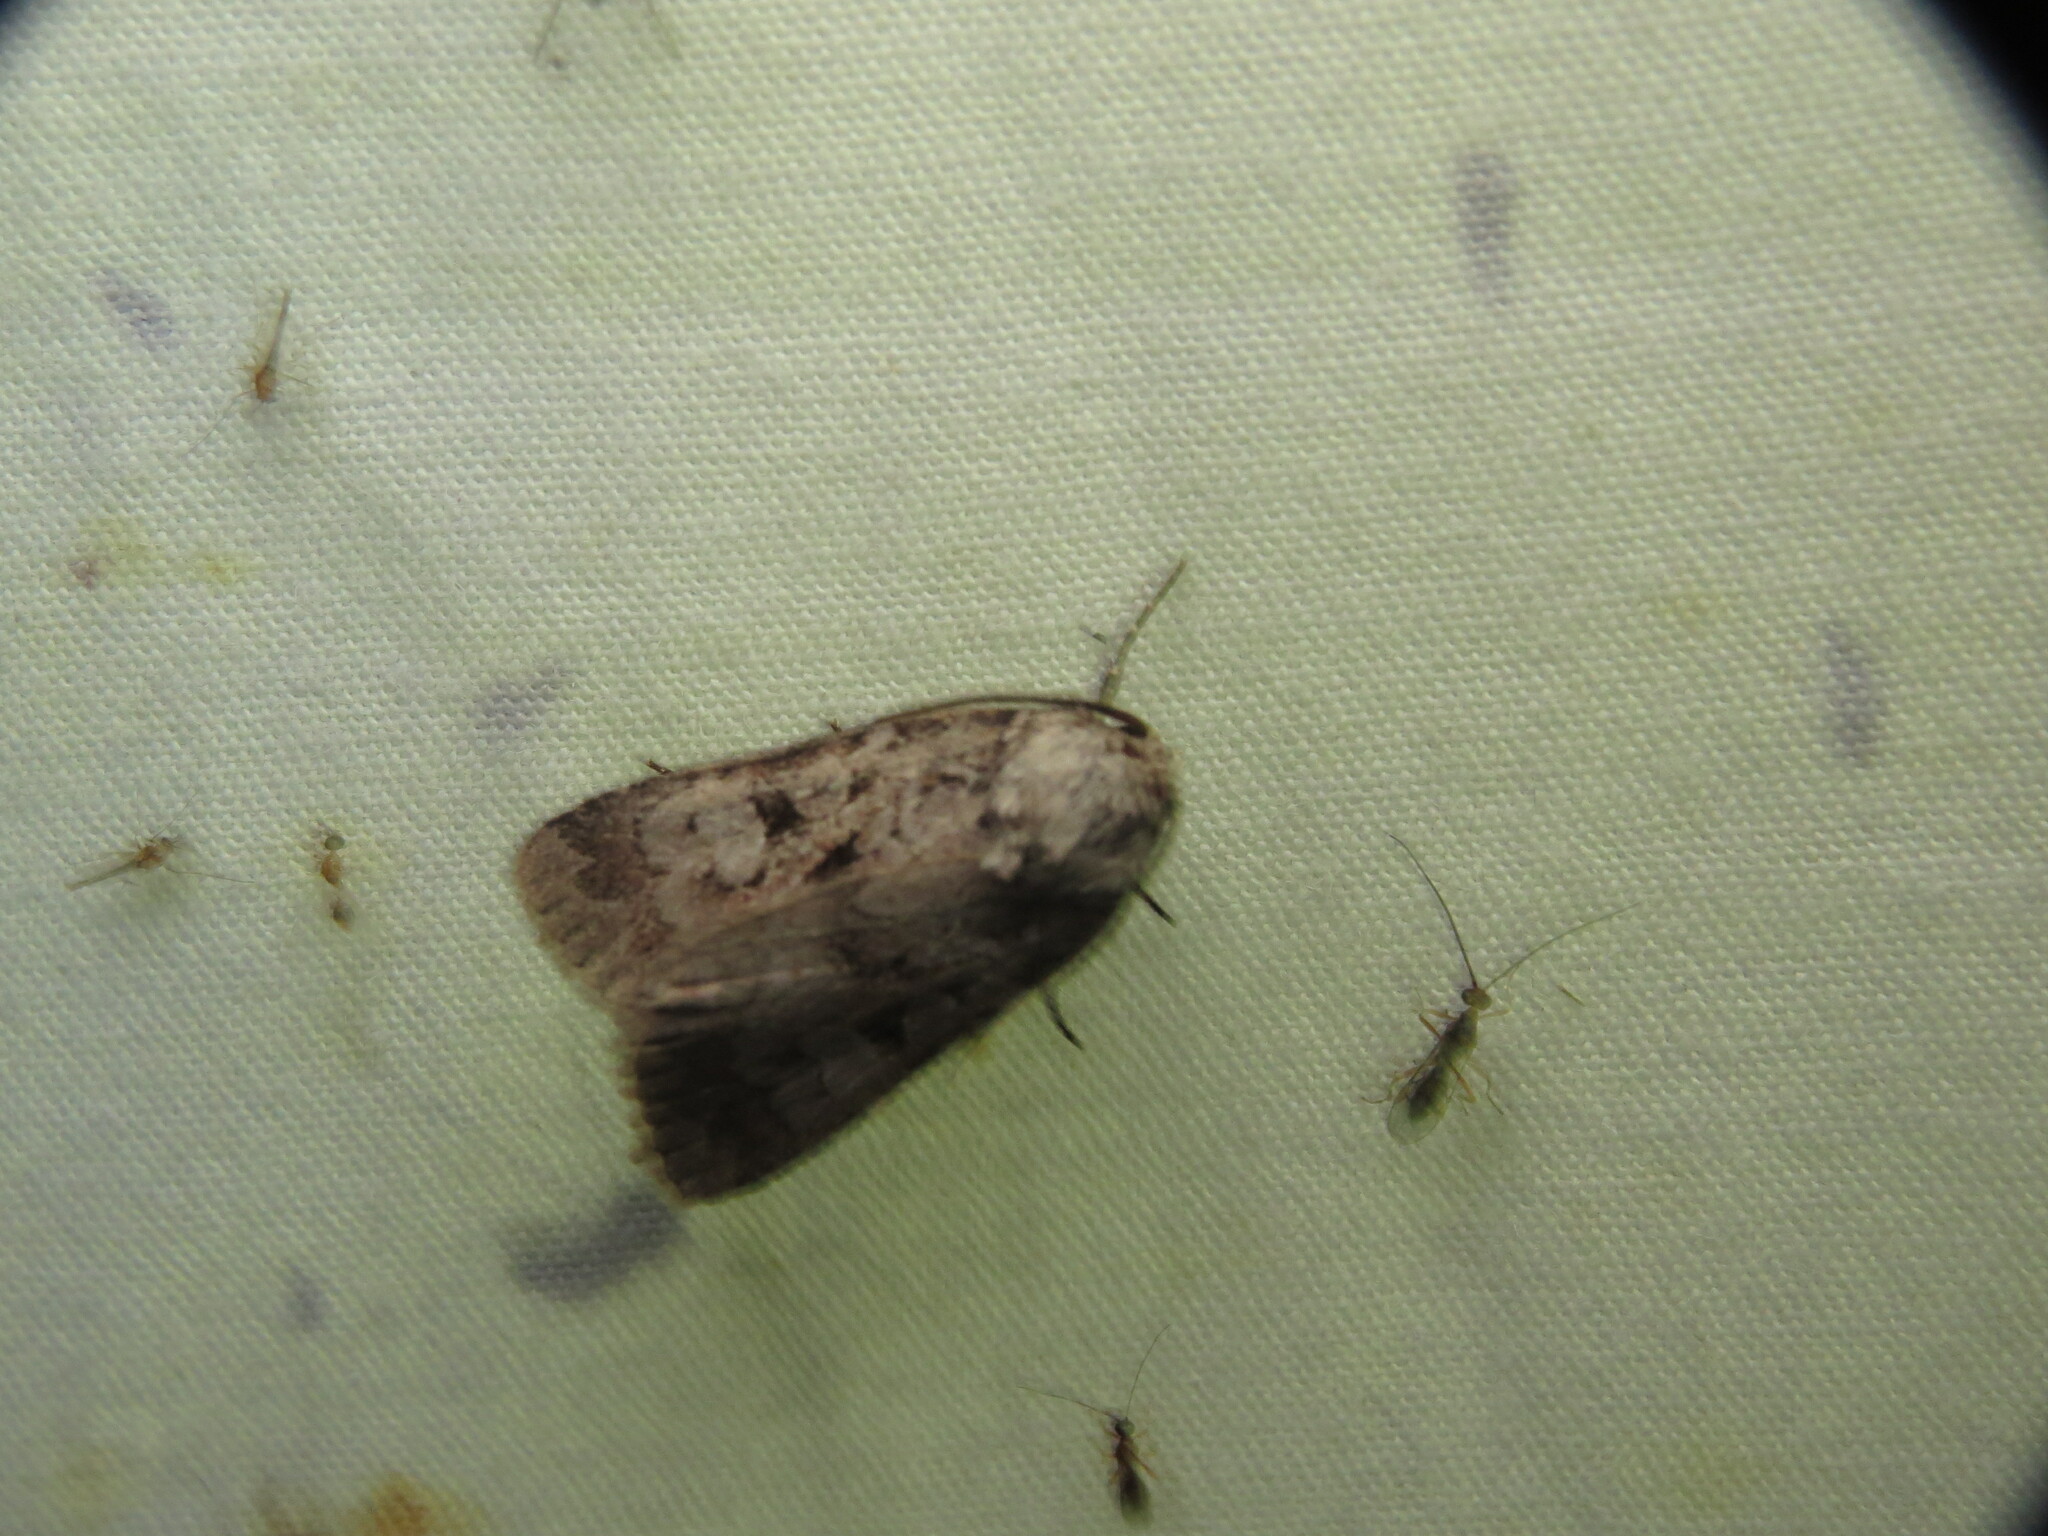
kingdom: Animalia
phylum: Arthropoda
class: Insecta
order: Lepidoptera
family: Noctuidae
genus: Feltia
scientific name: Feltia geniculata
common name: Knee-joint dart
